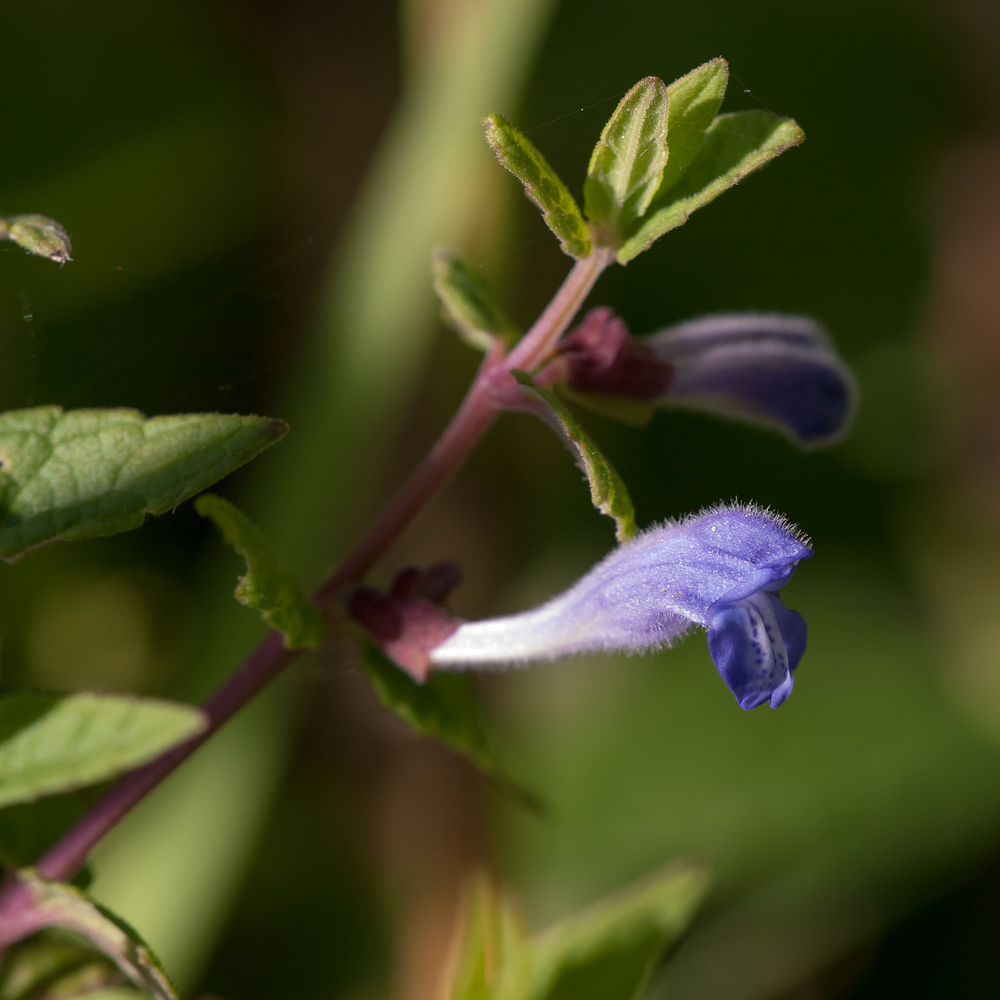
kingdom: Plantae
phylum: Tracheophyta
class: Magnoliopsida
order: Lamiales
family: Lamiaceae
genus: Scutellaria
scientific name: Scutellaria galericulata
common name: Skullcap
